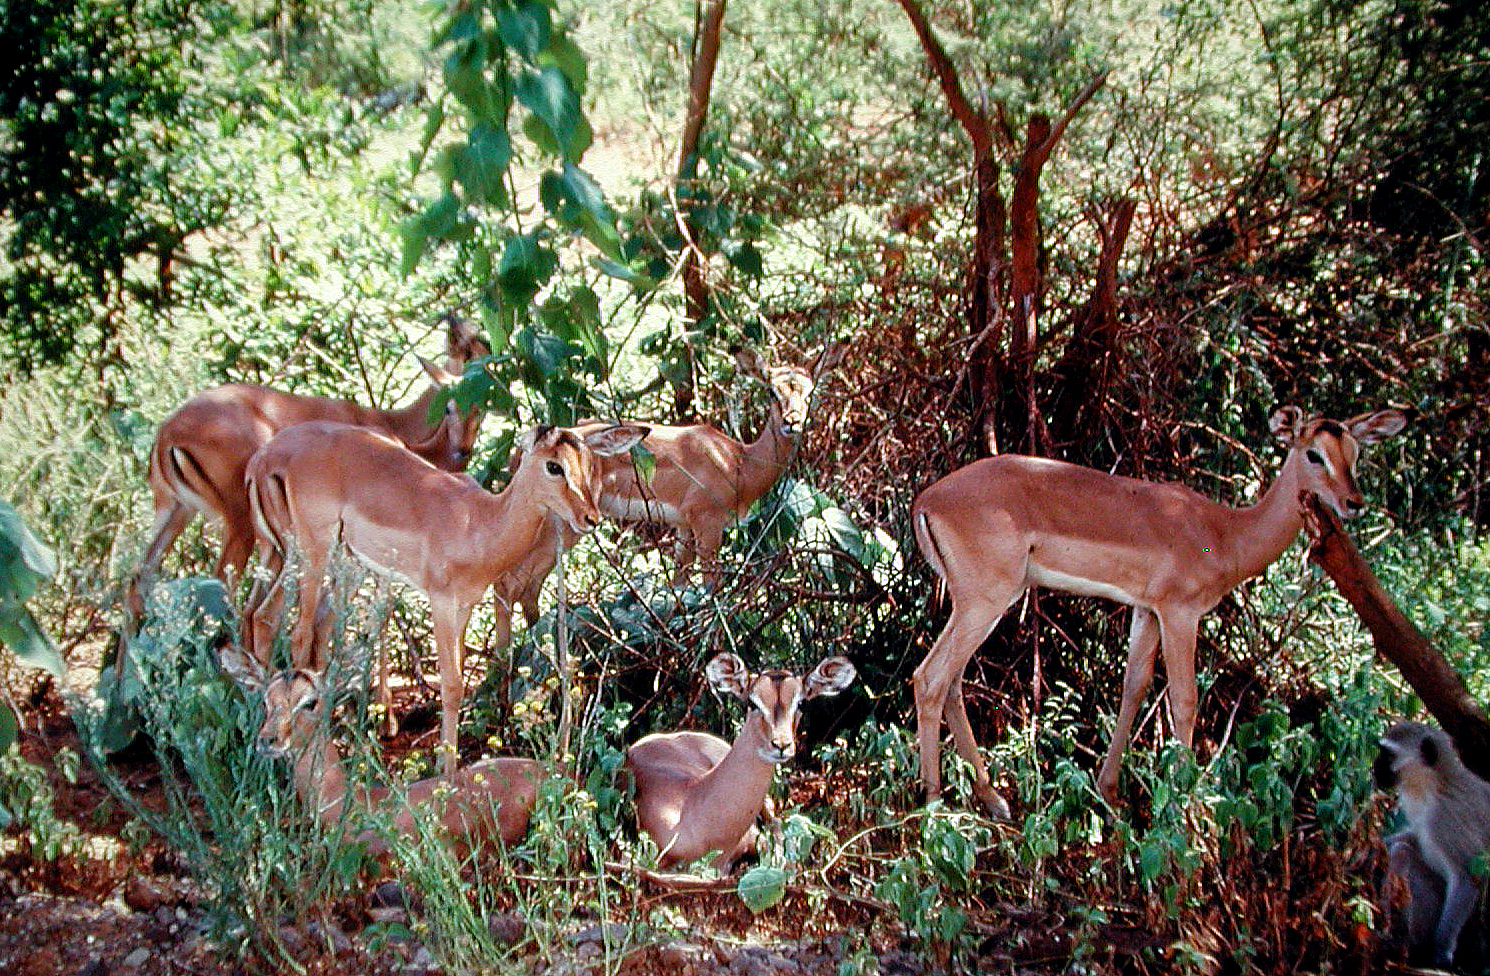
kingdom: Animalia
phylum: Chordata
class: Mammalia
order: Artiodactyla
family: Bovidae
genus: Aepyceros
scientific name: Aepyceros melampus
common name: Impala
